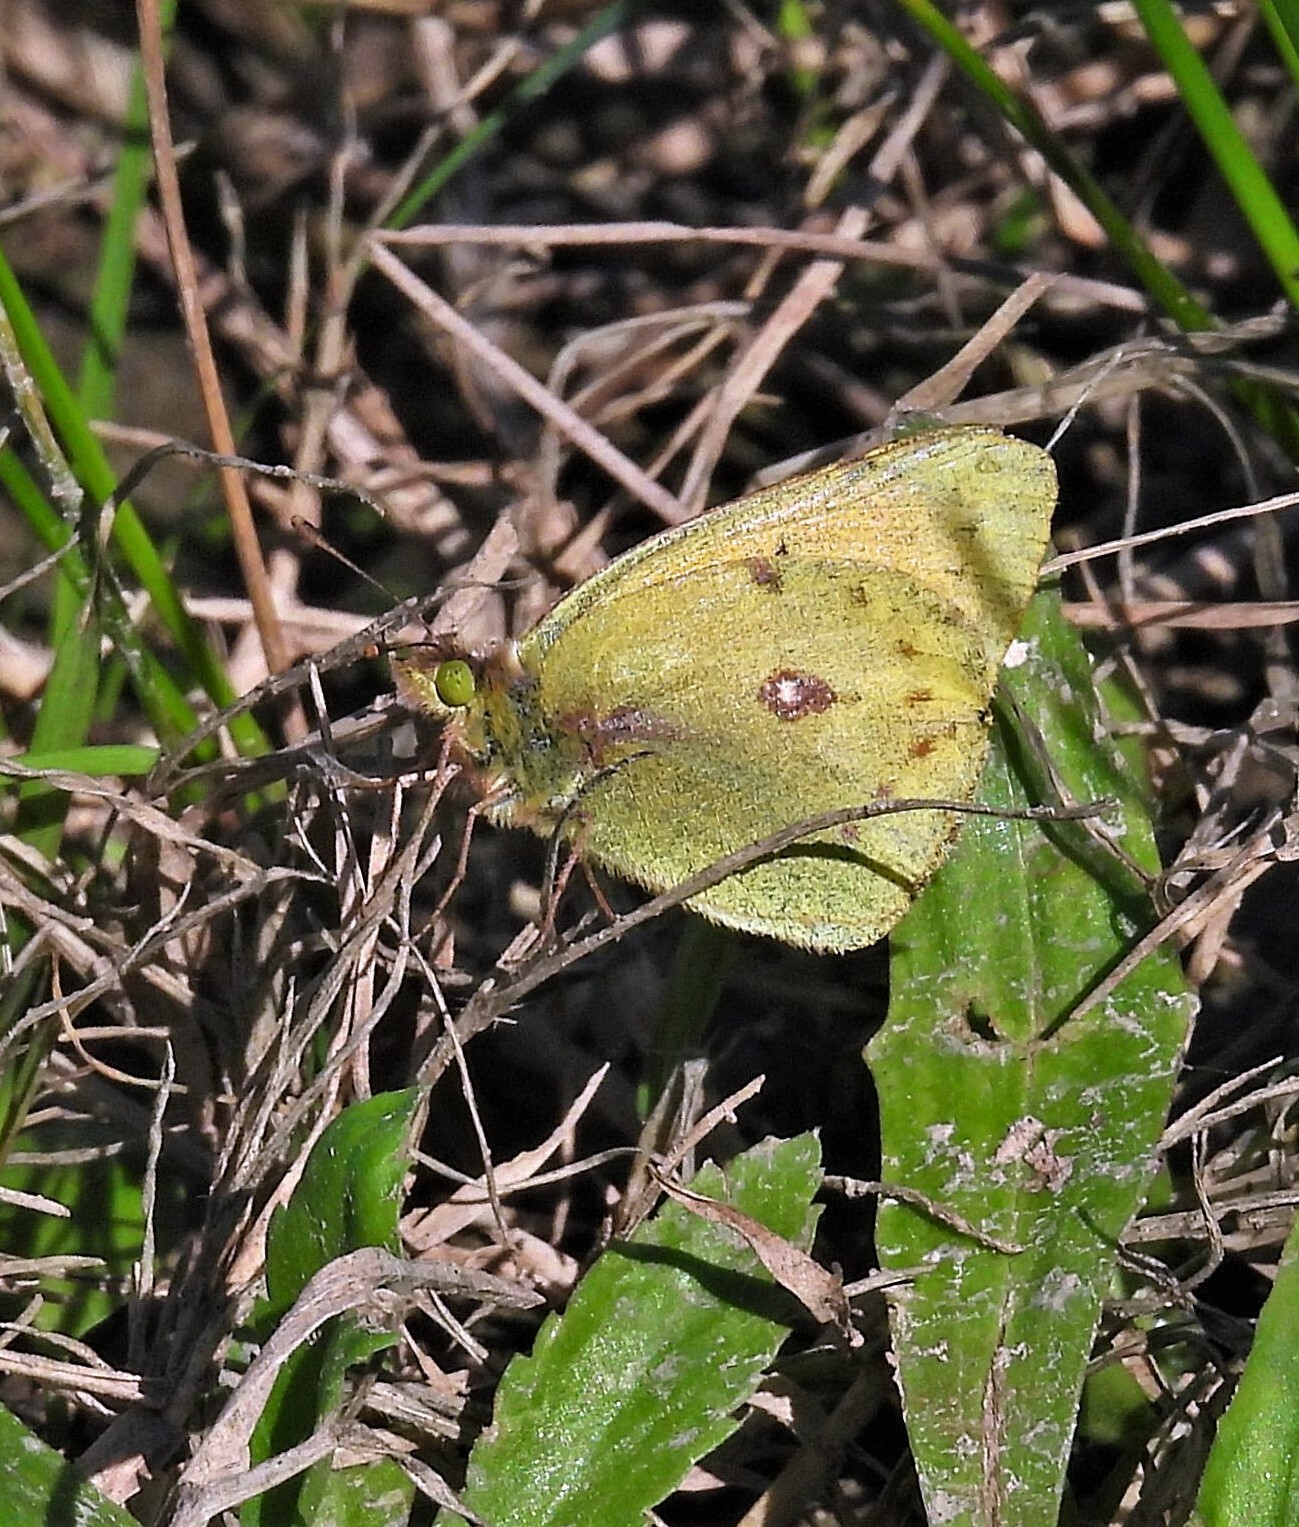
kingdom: Animalia
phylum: Arthropoda
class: Insecta
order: Lepidoptera
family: Pieridae
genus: Colias
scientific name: Colias lesbia
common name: Lesbia clouded yellow
